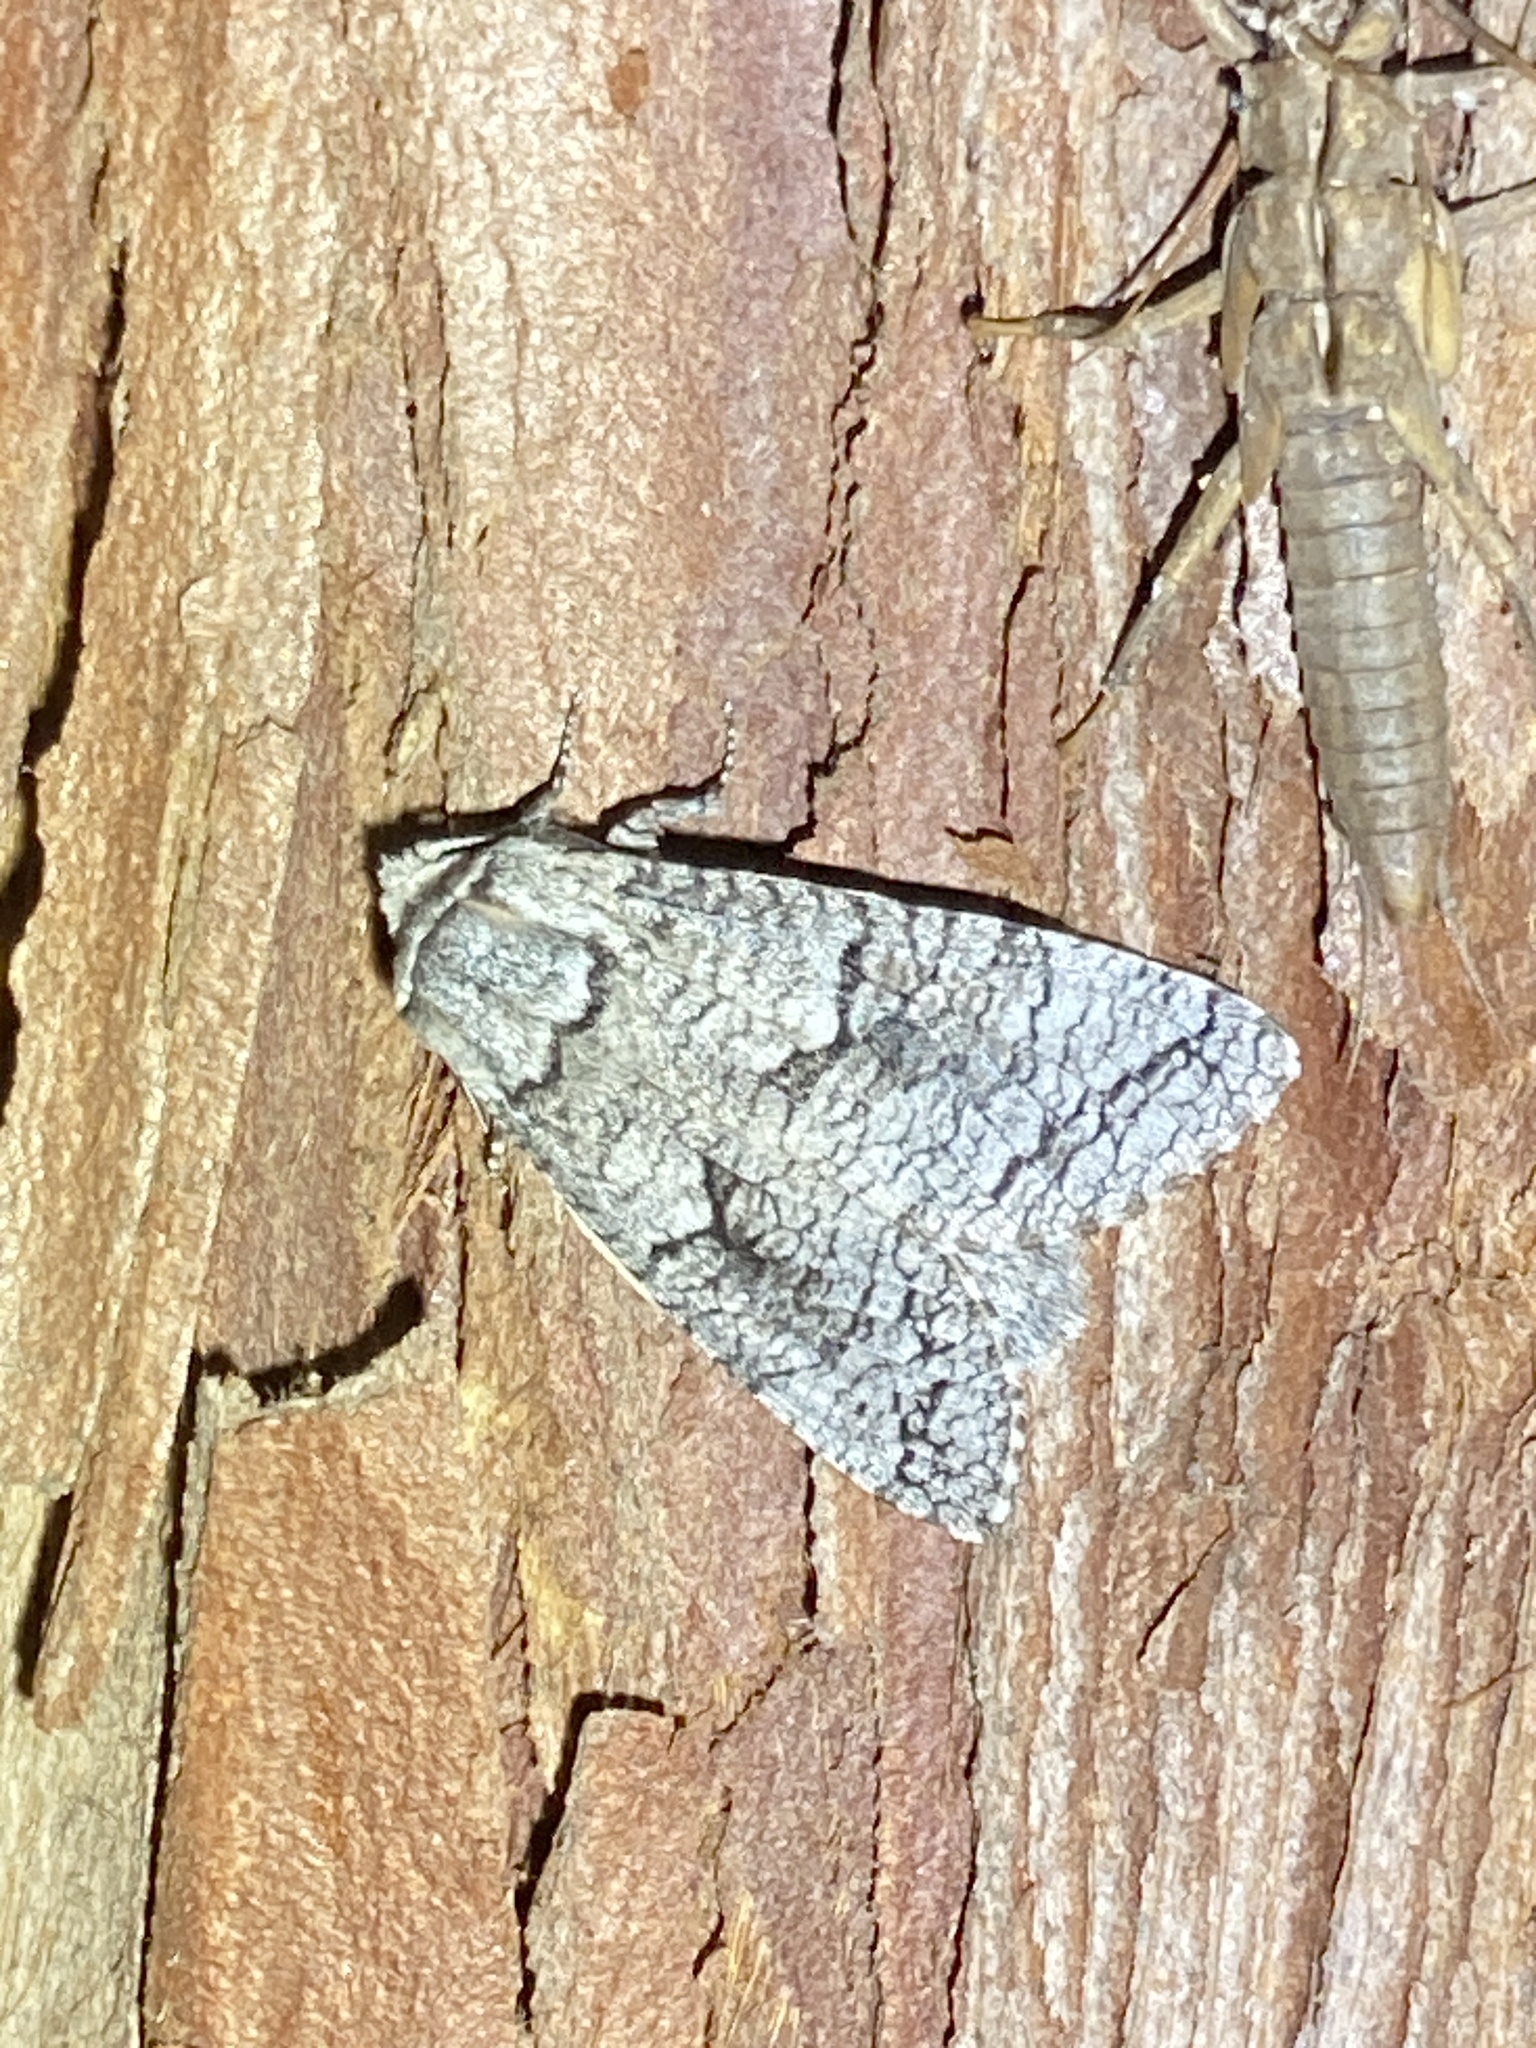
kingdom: Animalia
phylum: Arthropoda
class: Insecta
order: Lepidoptera
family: Cossidae
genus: Acossus
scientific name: Acossus populi
